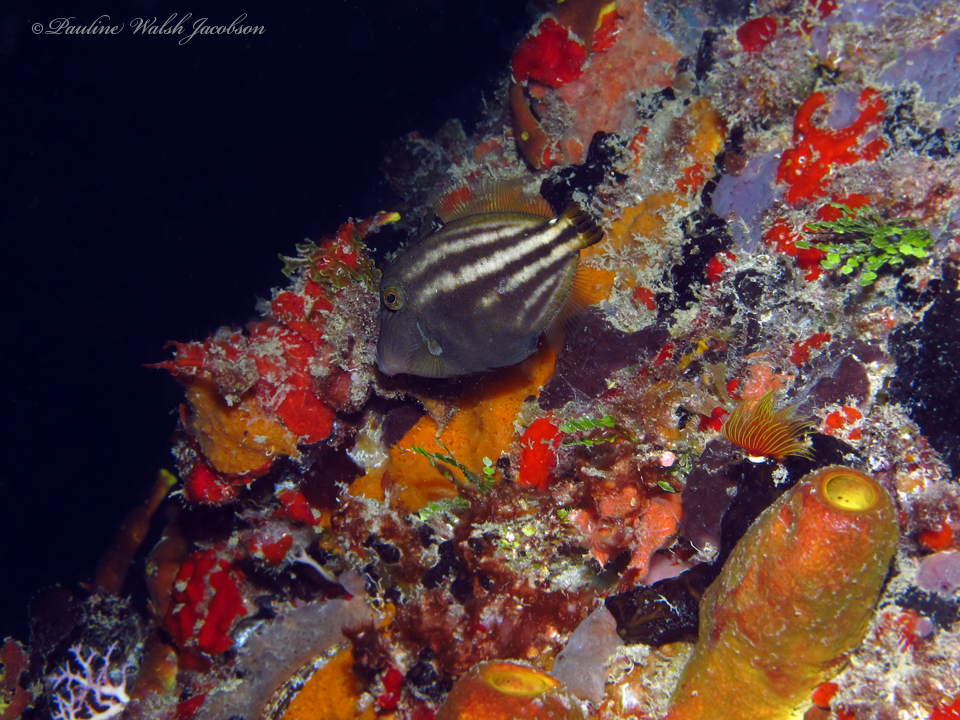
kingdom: Animalia
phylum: Chordata
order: Tetraodontiformes
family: Monacanthidae
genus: Cantherhines
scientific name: Cantherhines pullus
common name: Orangespotted filefish
